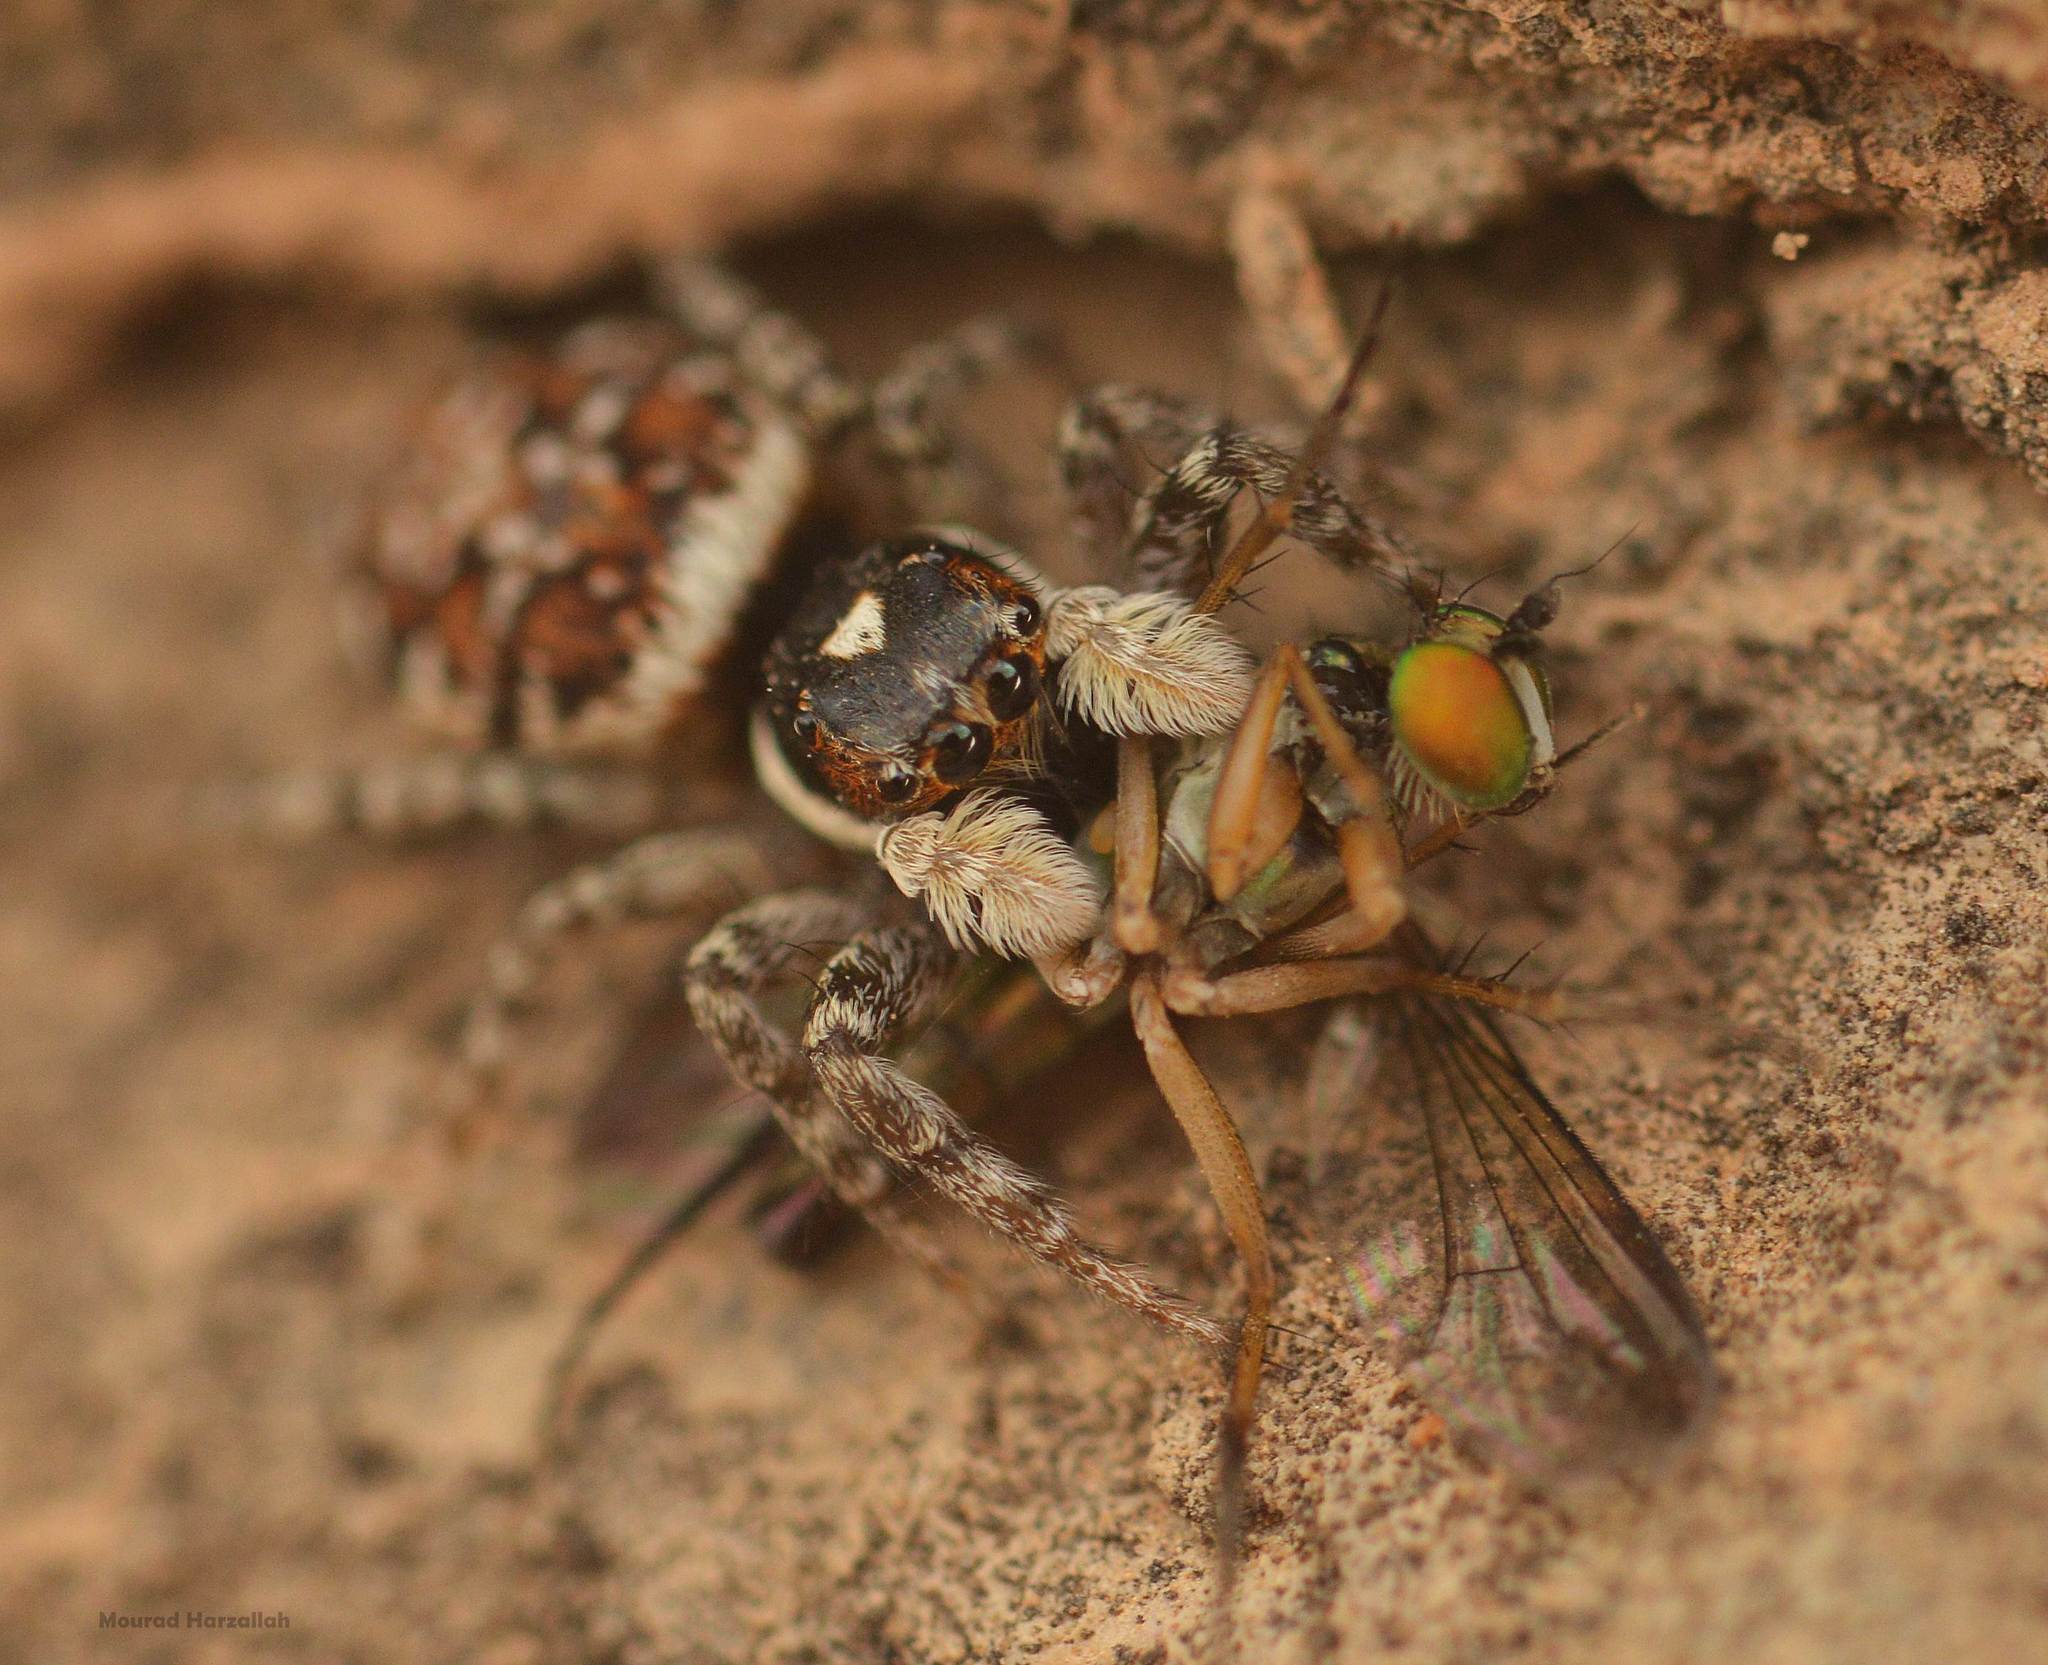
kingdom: Animalia
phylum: Arthropoda
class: Arachnida
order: Araneae
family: Salticidae
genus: Menemerus
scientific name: Menemerus semilimbatus
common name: Jumping spider
